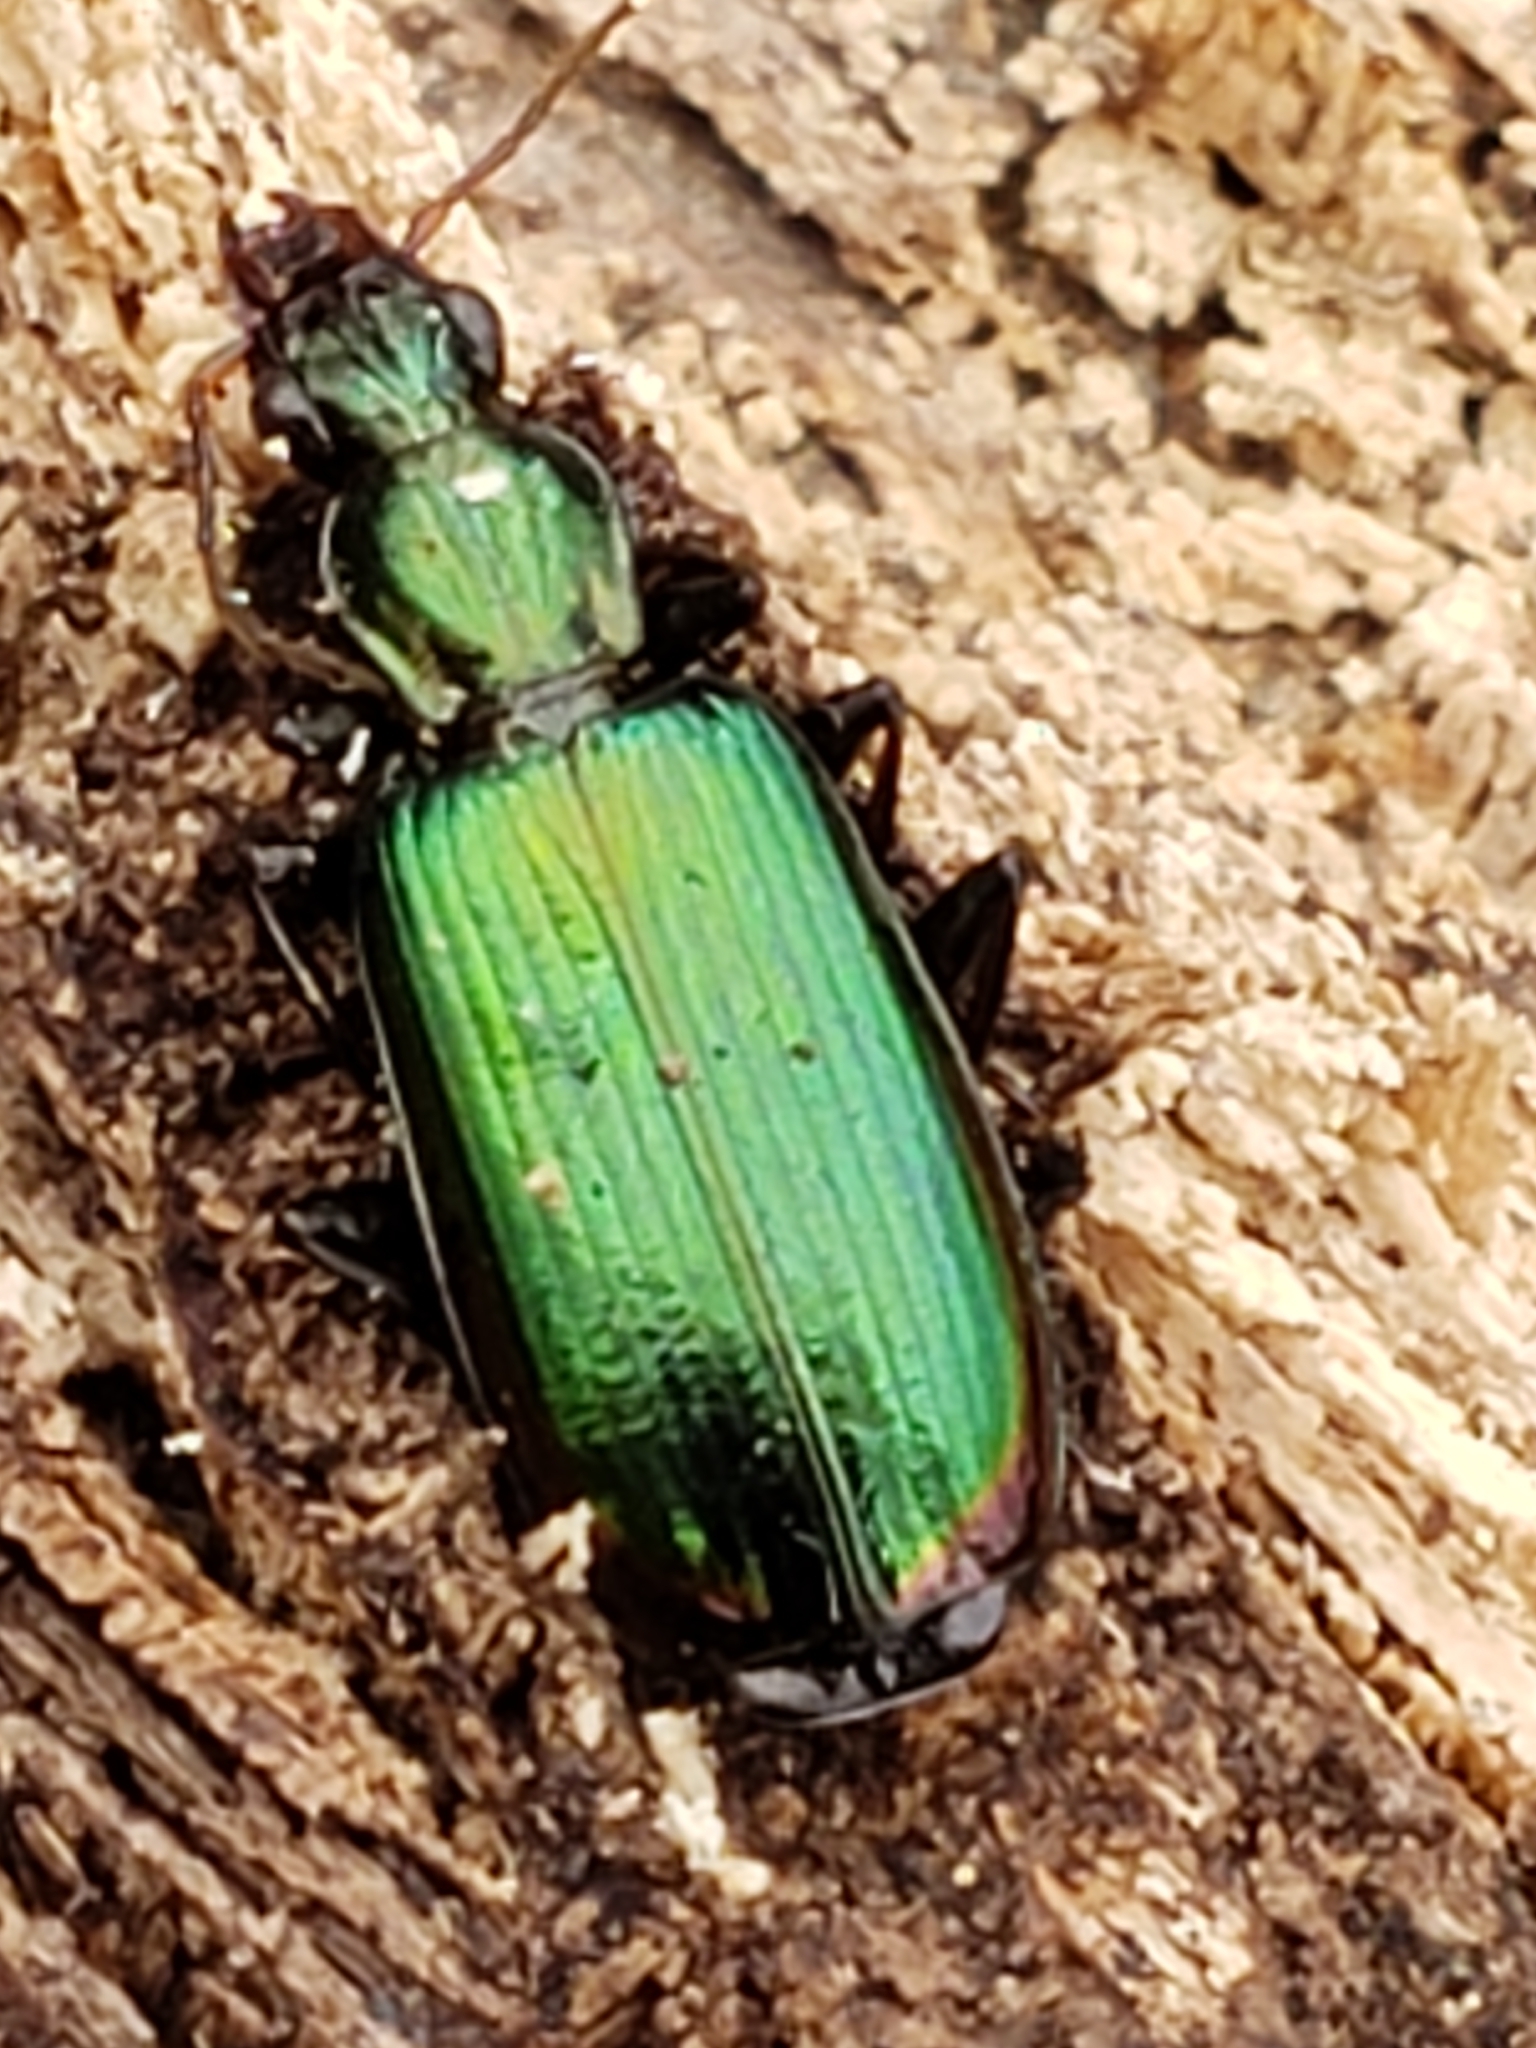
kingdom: Animalia
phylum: Arthropoda
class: Insecta
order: Coleoptera
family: Carabidae
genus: Calleida
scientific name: Calleida viridipennis
